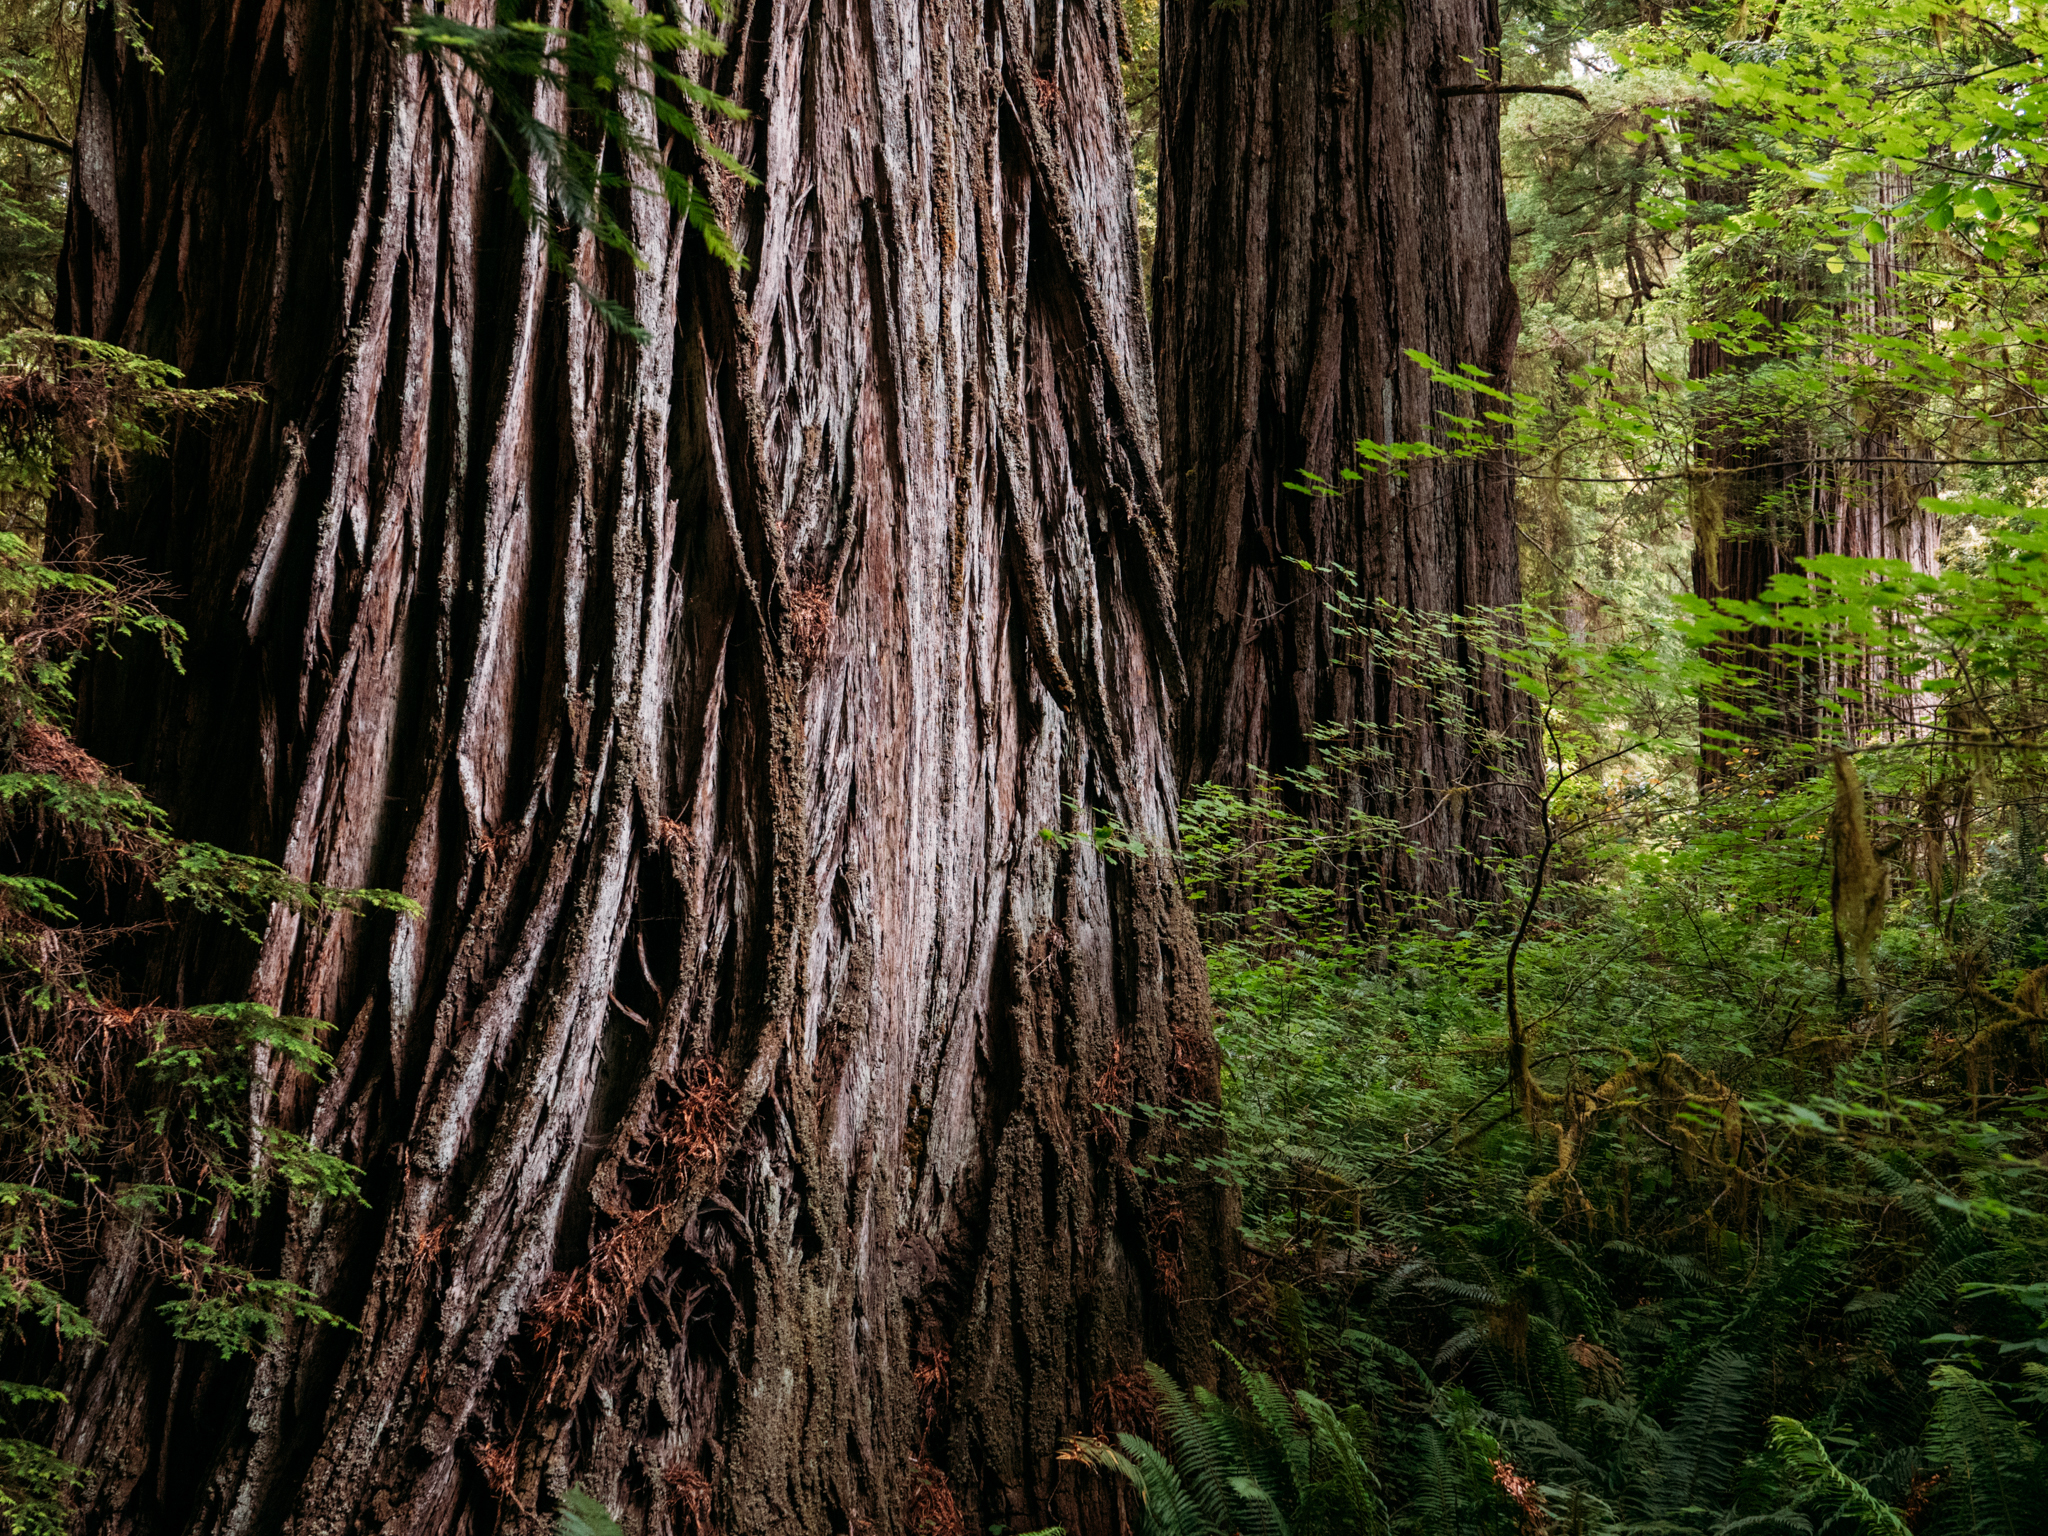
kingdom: Plantae
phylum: Tracheophyta
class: Pinopsida
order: Pinales
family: Cupressaceae
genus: Sequoia
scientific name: Sequoia sempervirens
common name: Coast redwood
